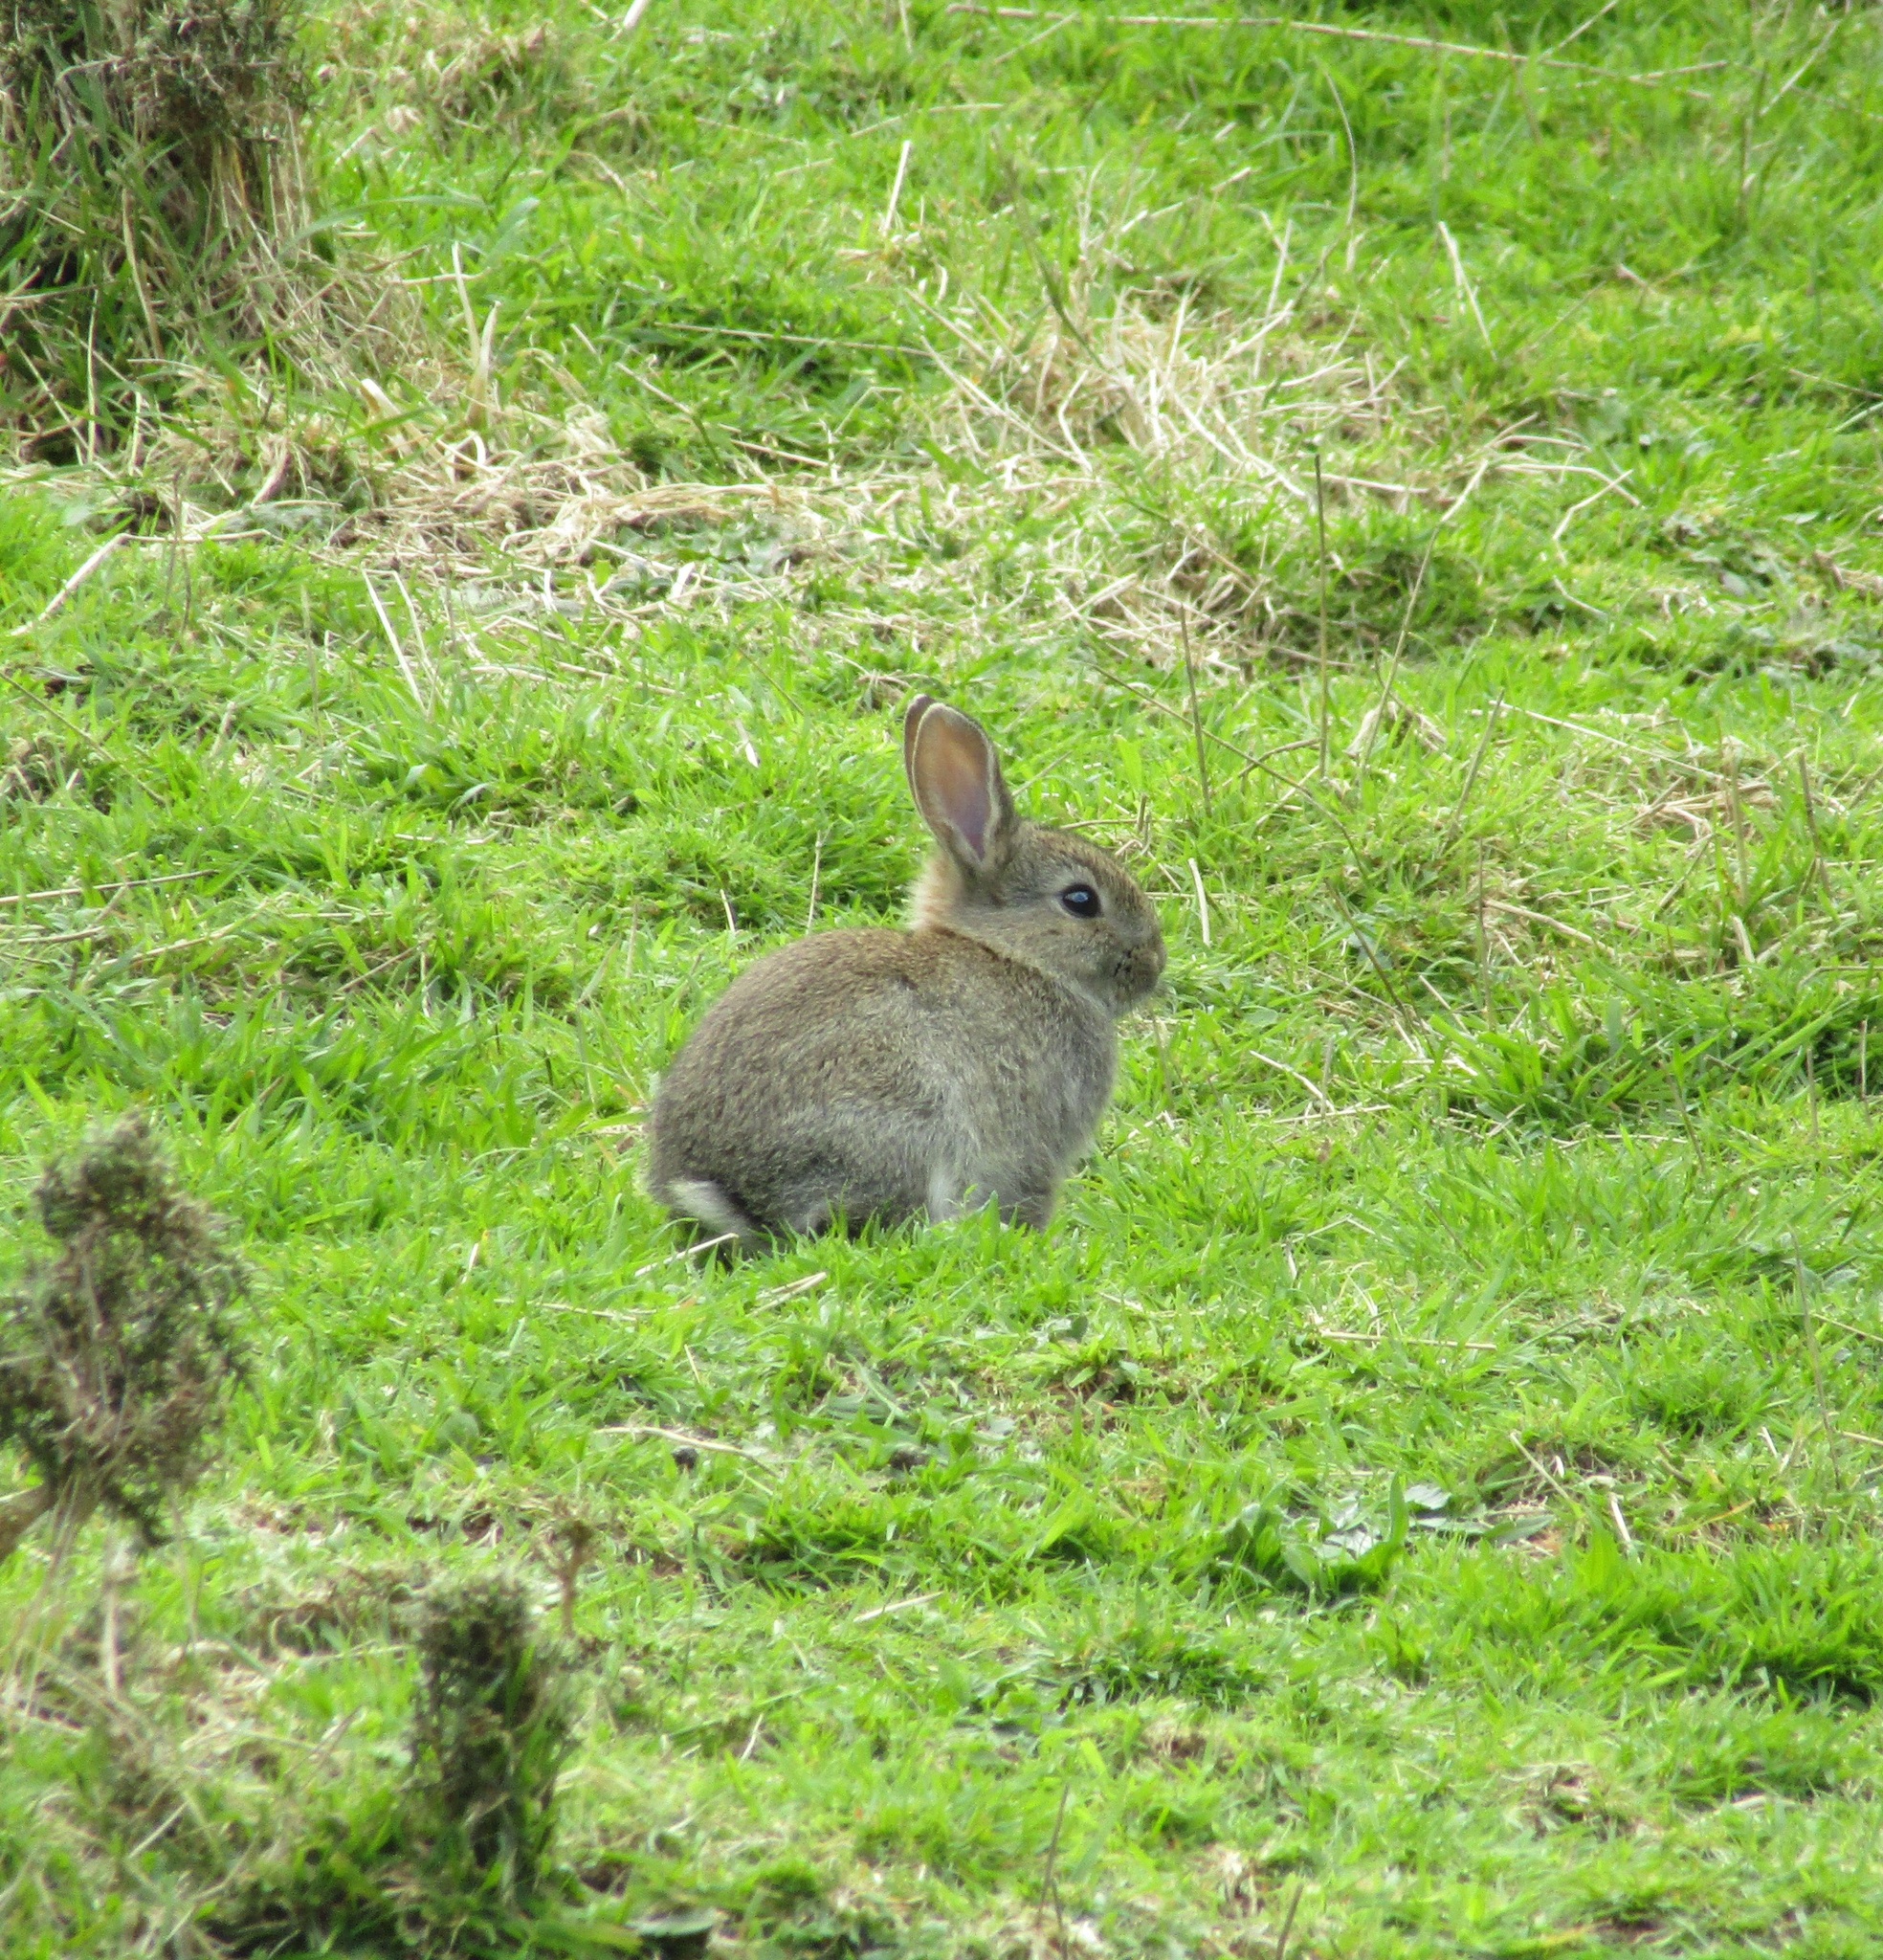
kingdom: Animalia
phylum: Chordata
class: Mammalia
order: Lagomorpha
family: Leporidae
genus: Oryctolagus
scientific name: Oryctolagus cuniculus
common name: European rabbit
